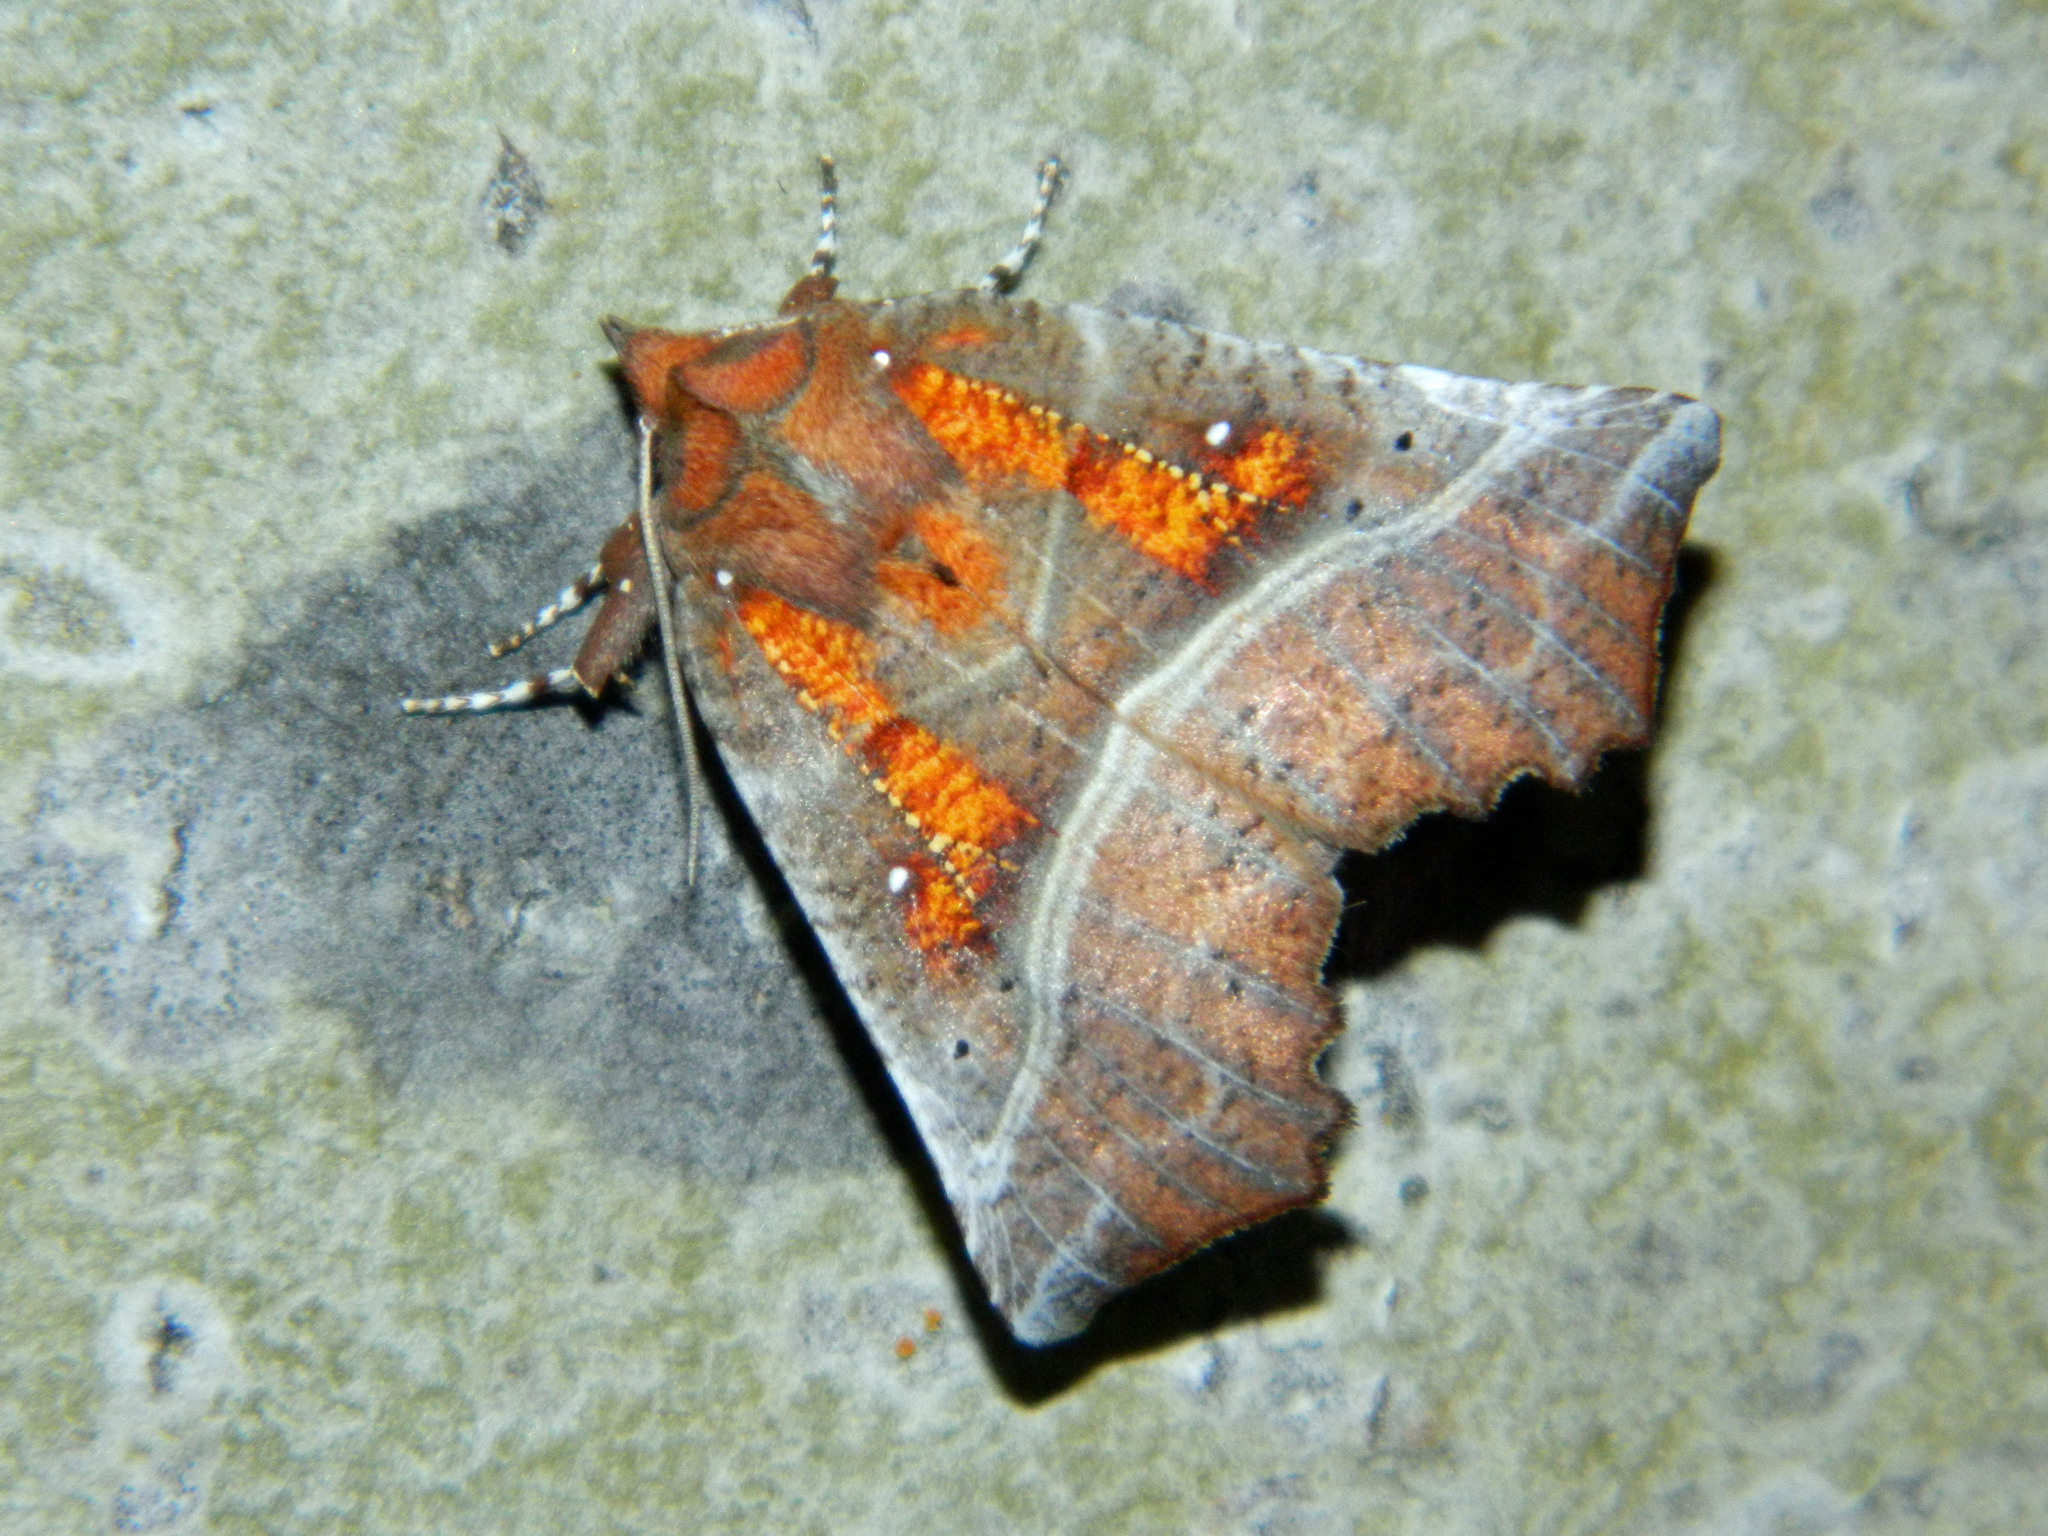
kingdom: Animalia
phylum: Arthropoda
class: Insecta
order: Lepidoptera
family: Erebidae
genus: Scoliopteryx
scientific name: Scoliopteryx libatrix
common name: Herald
